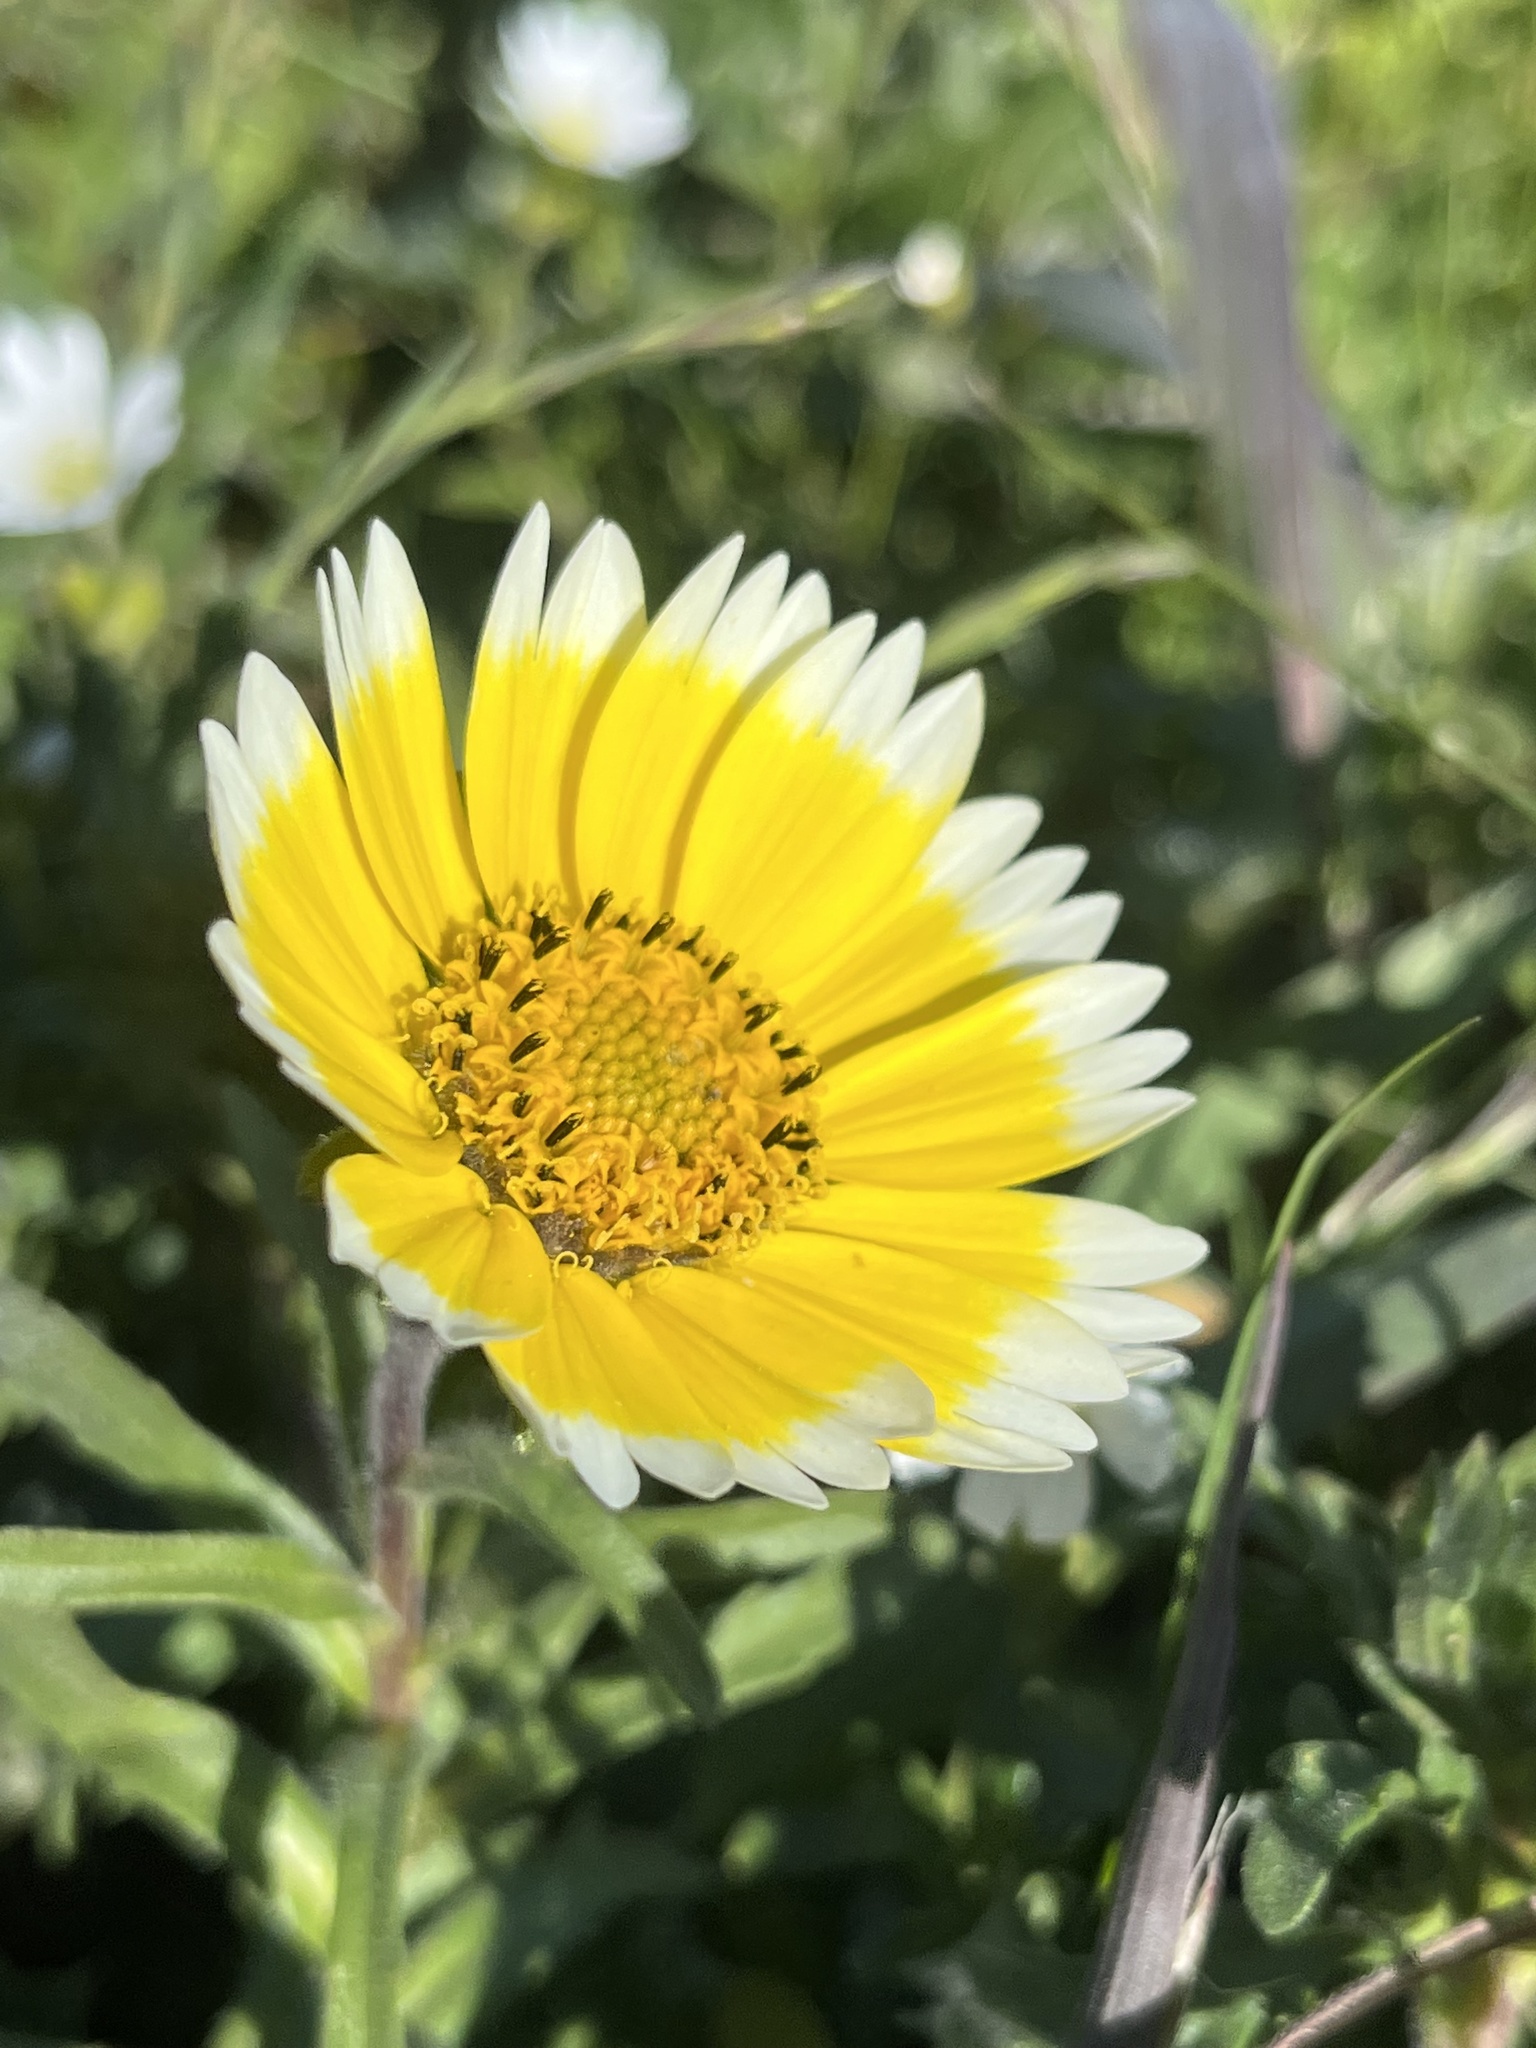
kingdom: Plantae
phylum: Tracheophyta
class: Magnoliopsida
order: Asterales
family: Asteraceae
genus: Layia
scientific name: Layia platyglossa
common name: Tidy-tips
